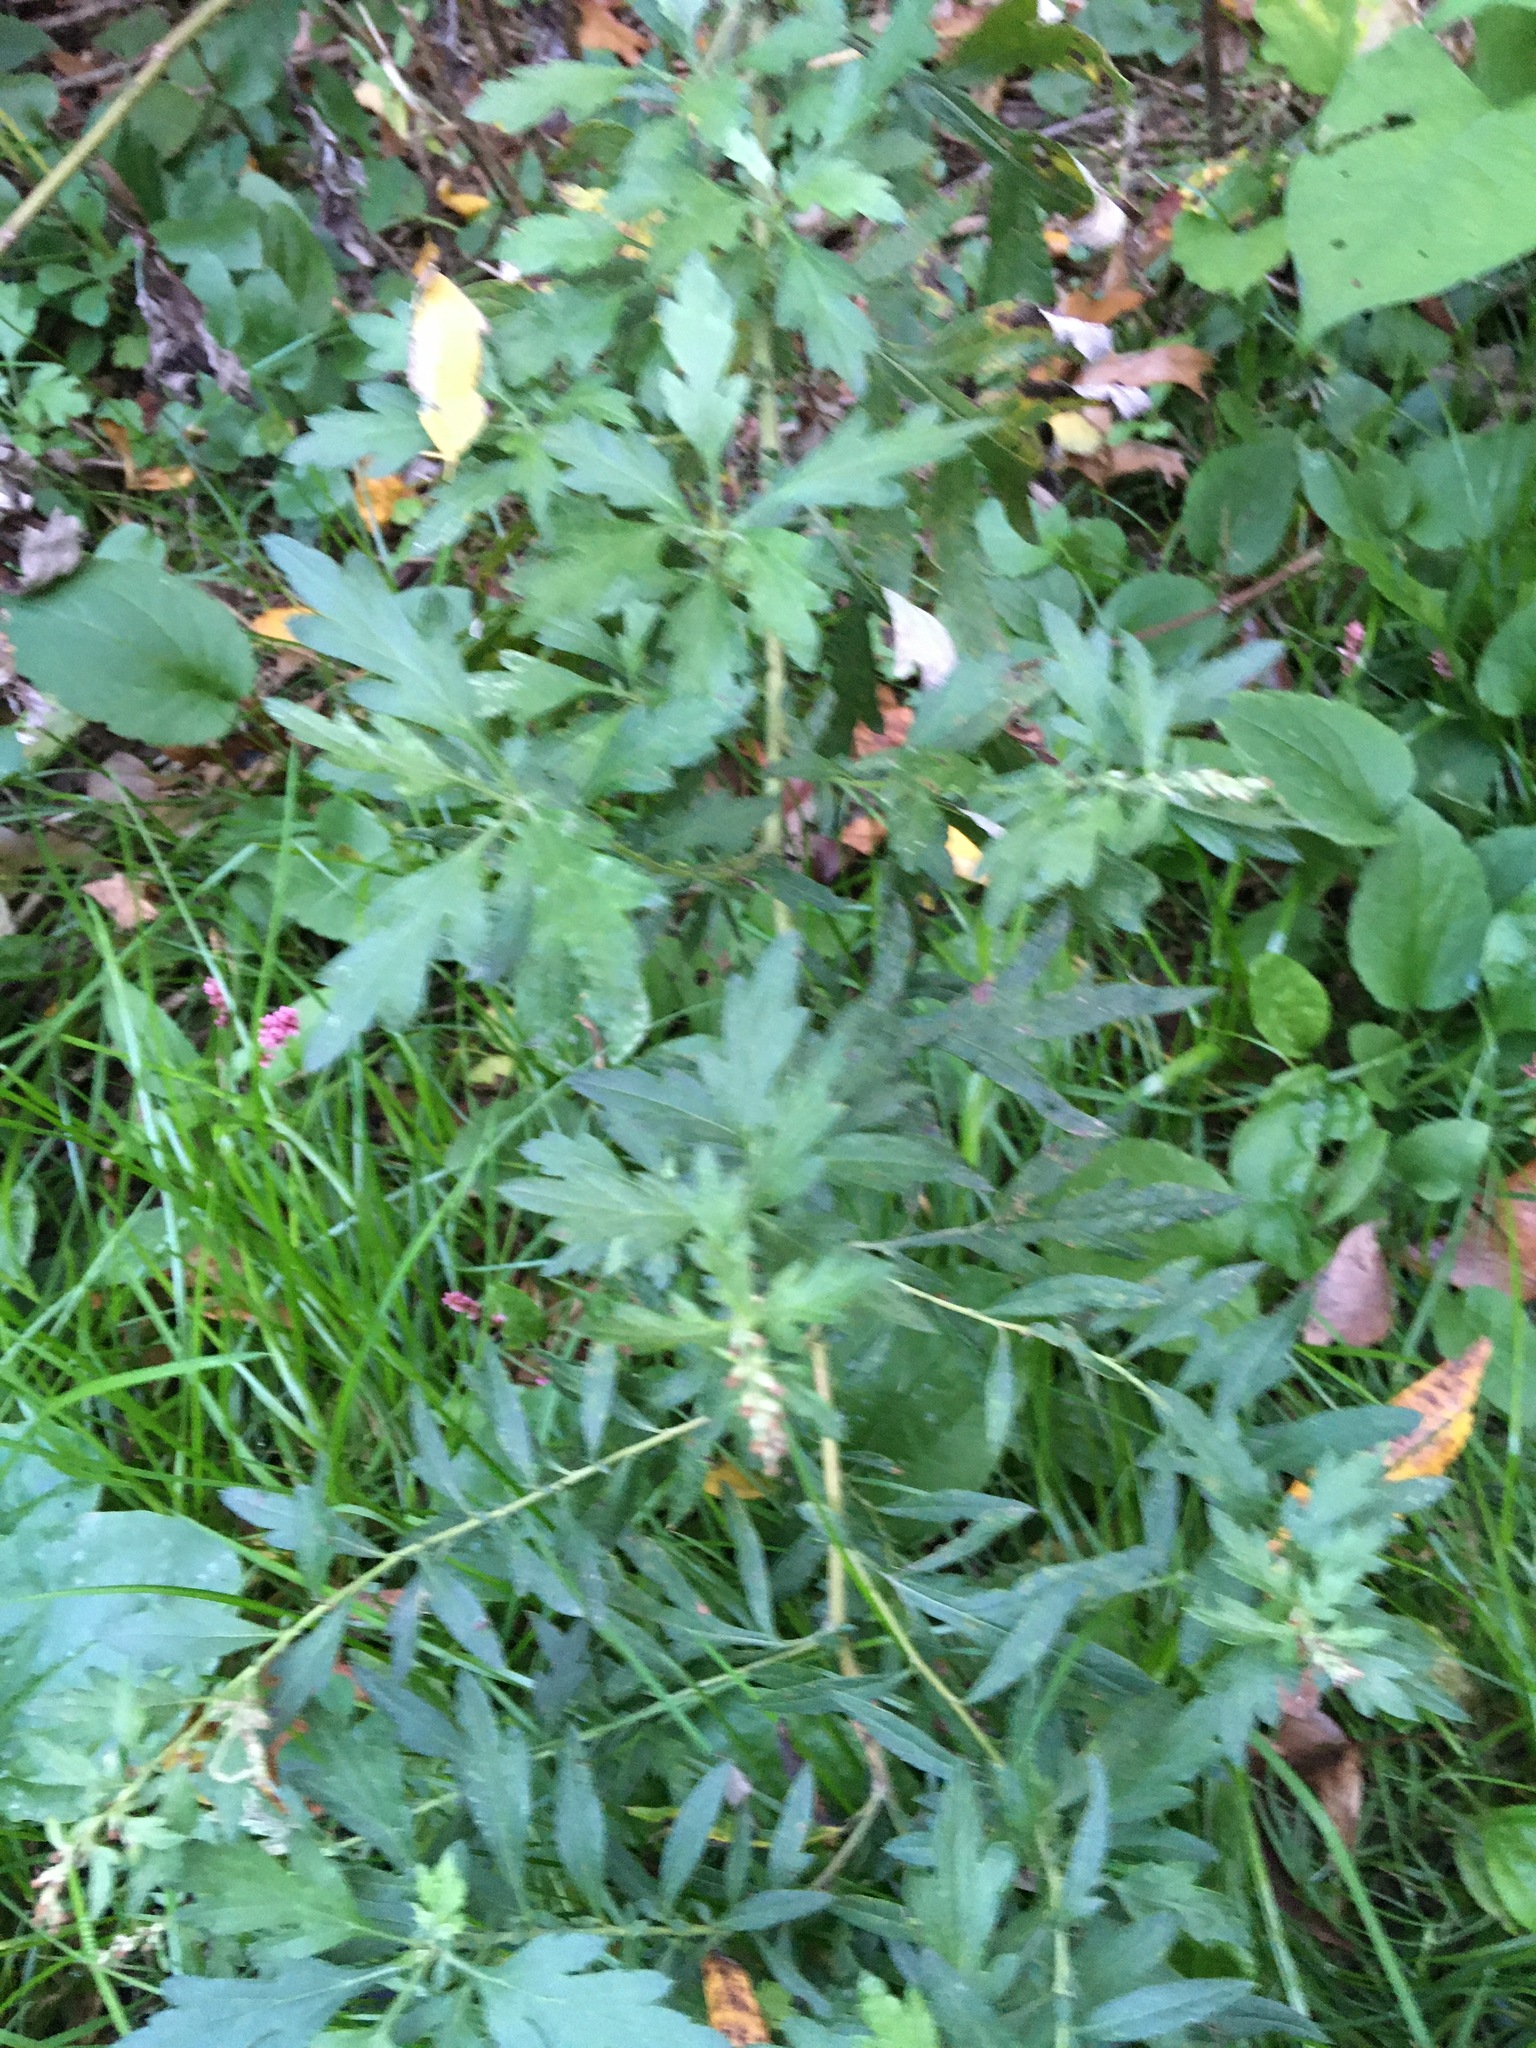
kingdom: Plantae
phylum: Tracheophyta
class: Magnoliopsida
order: Asterales
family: Asteraceae
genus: Artemisia
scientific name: Artemisia vulgaris
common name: Mugwort
